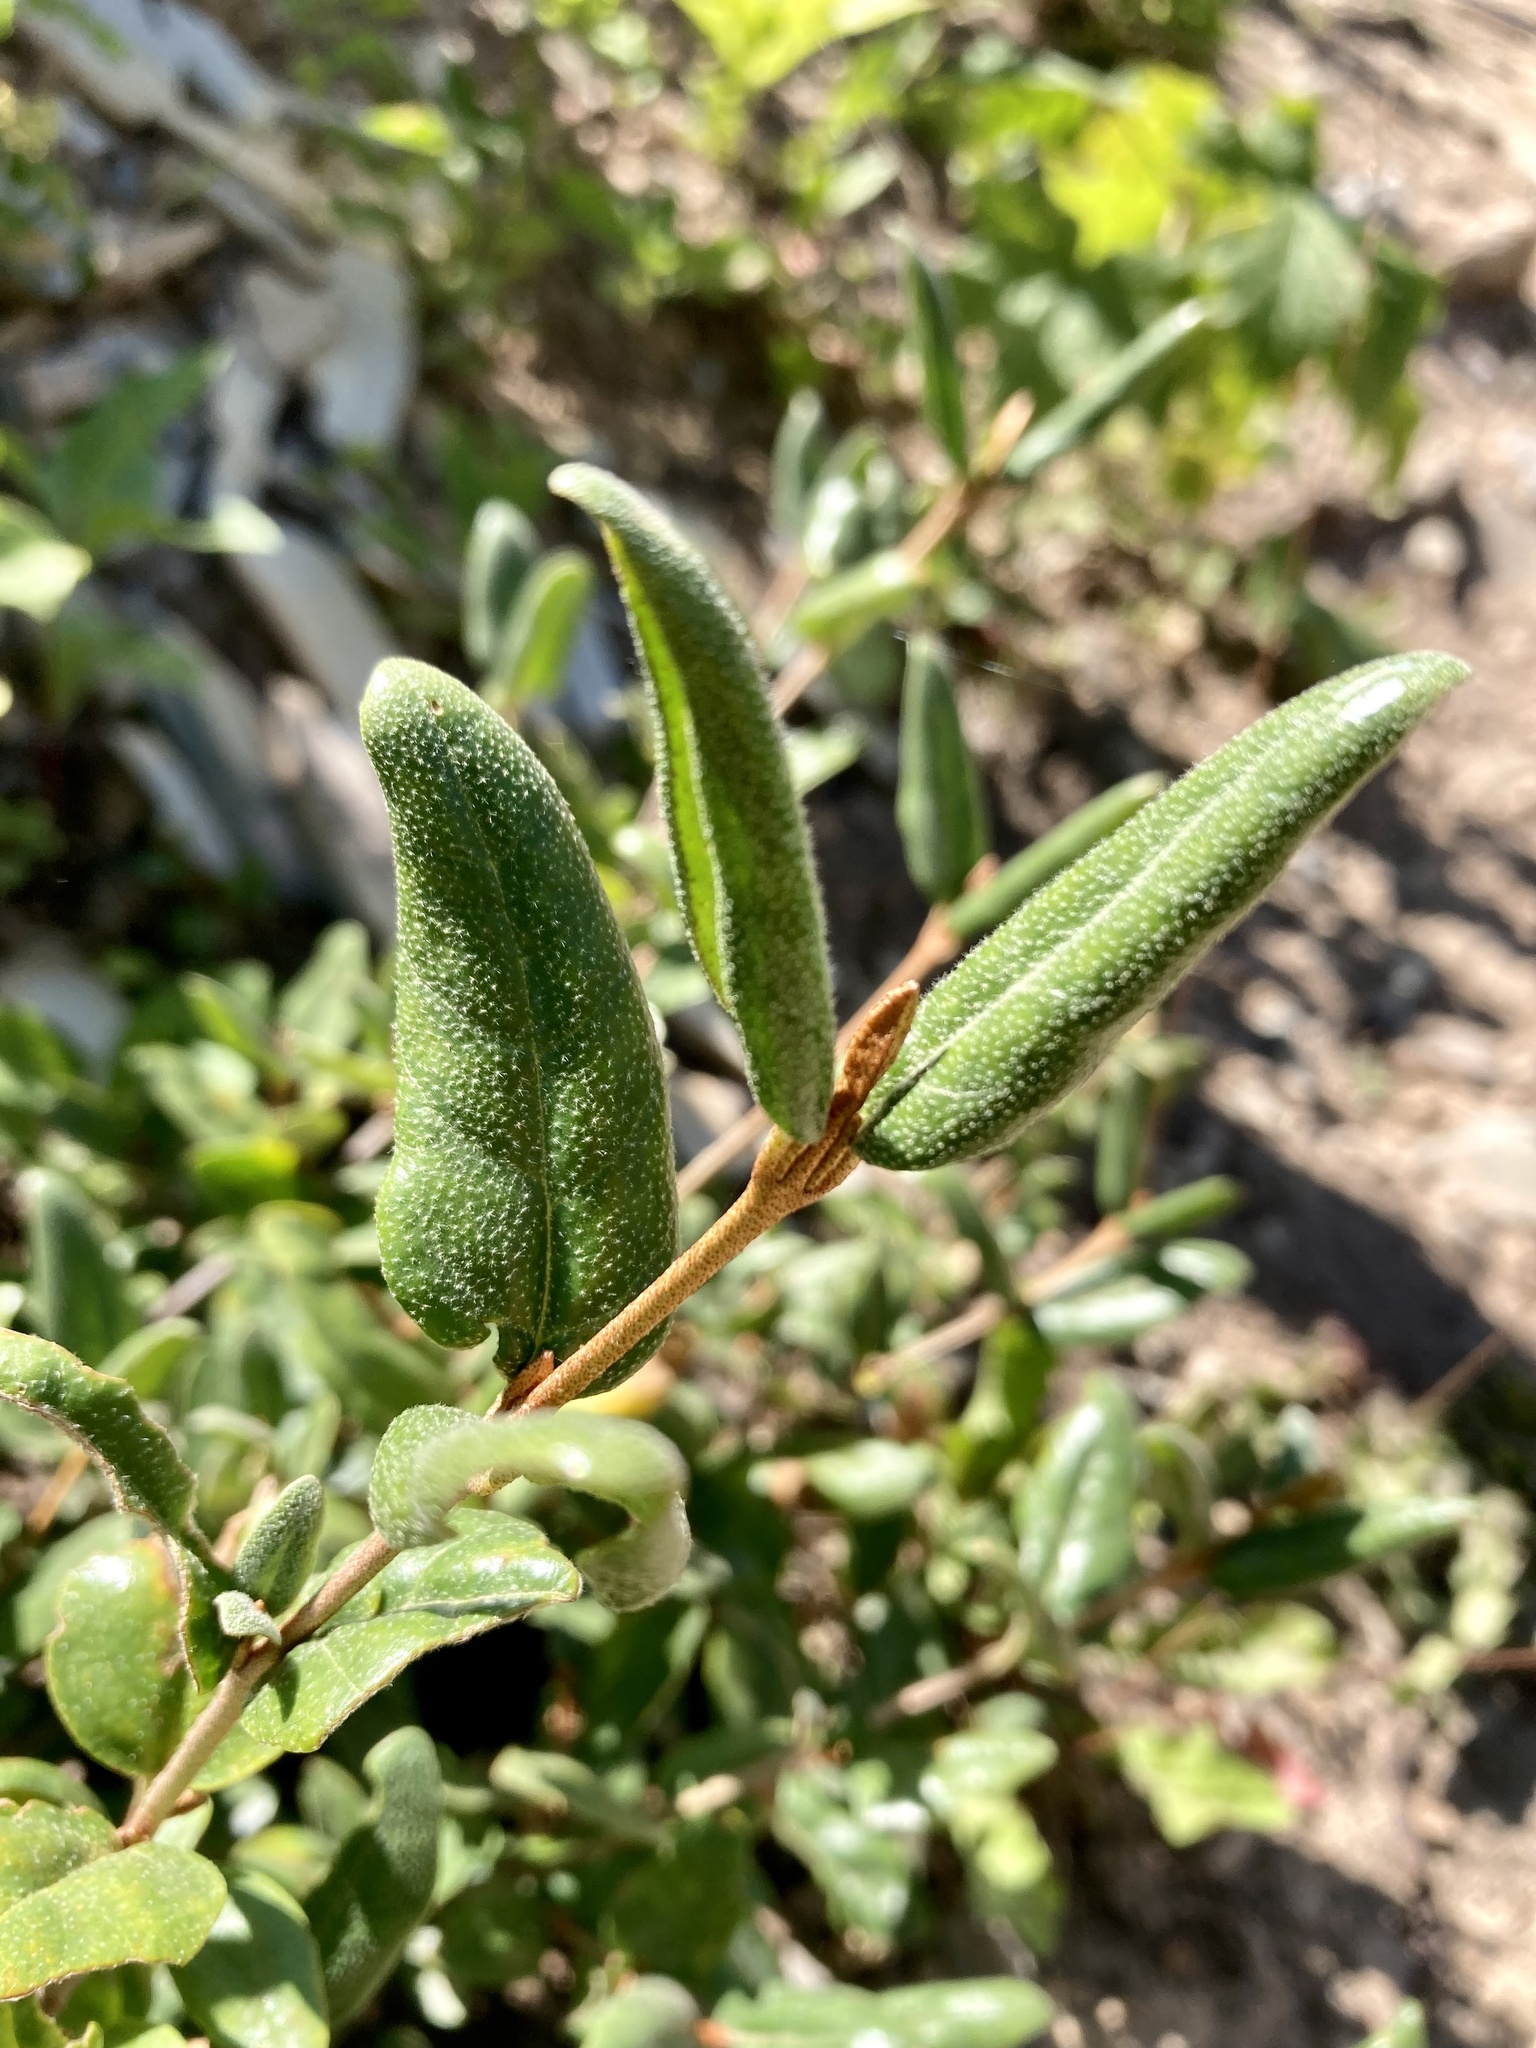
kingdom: Plantae
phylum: Tracheophyta
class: Magnoliopsida
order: Rosales
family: Elaeagnaceae
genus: Shepherdia
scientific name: Shepherdia canadensis
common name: Soapberry
